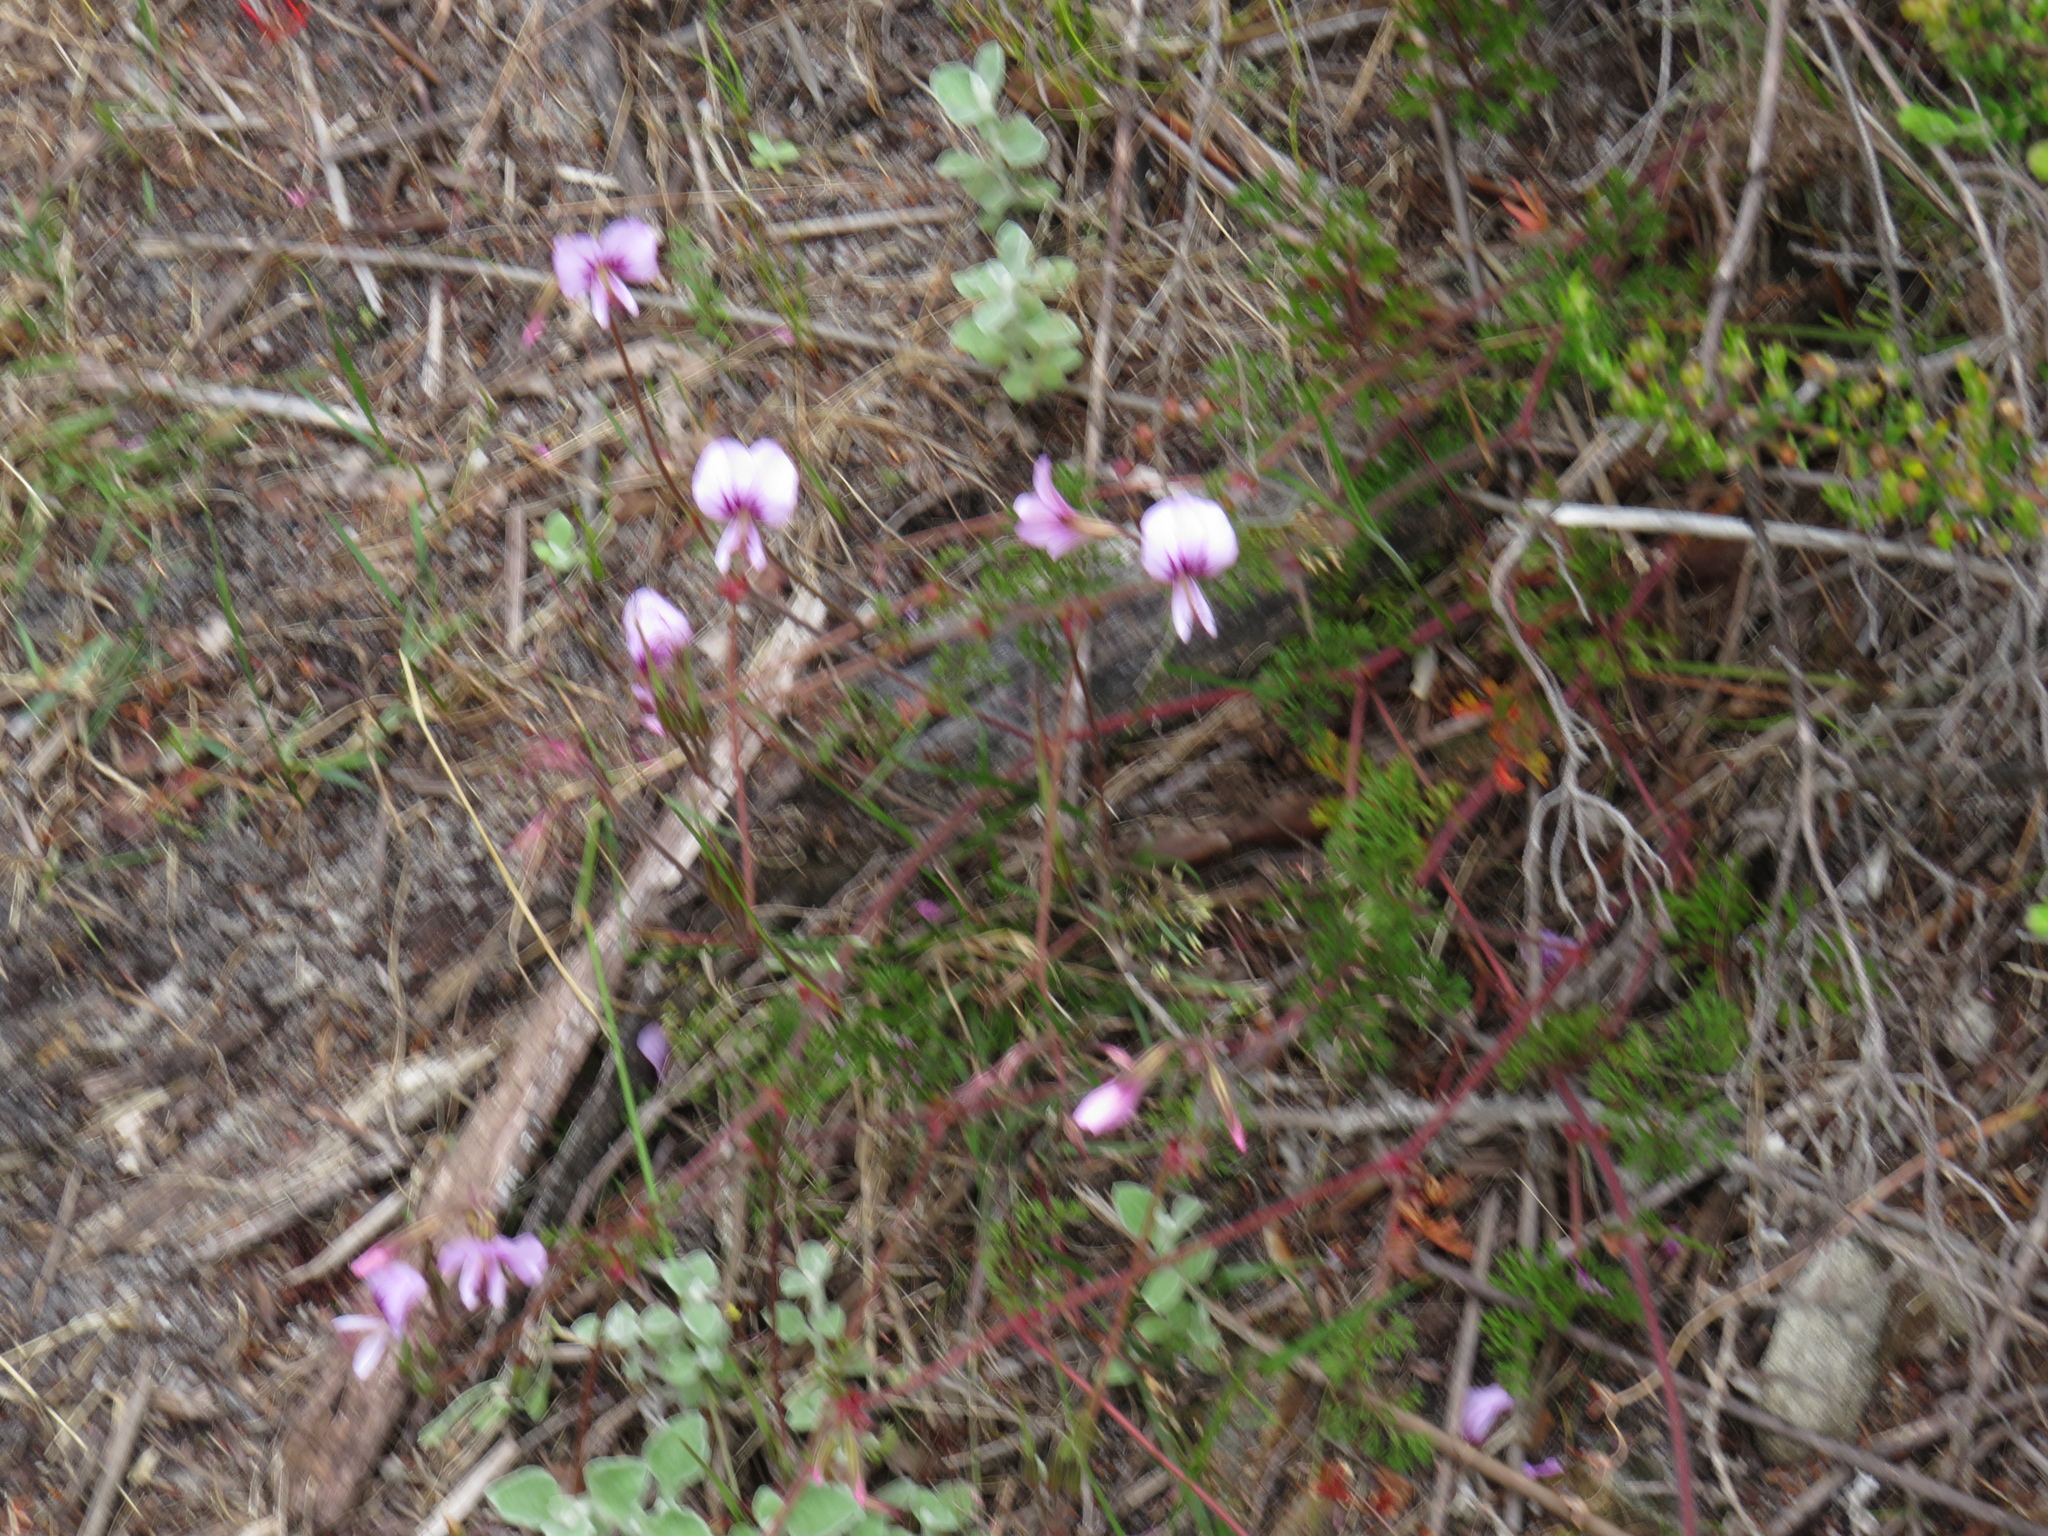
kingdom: Plantae
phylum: Tracheophyta
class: Magnoliopsida
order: Geraniales
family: Geraniaceae
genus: Pelargonium
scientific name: Pelargonium myrrhifolium
